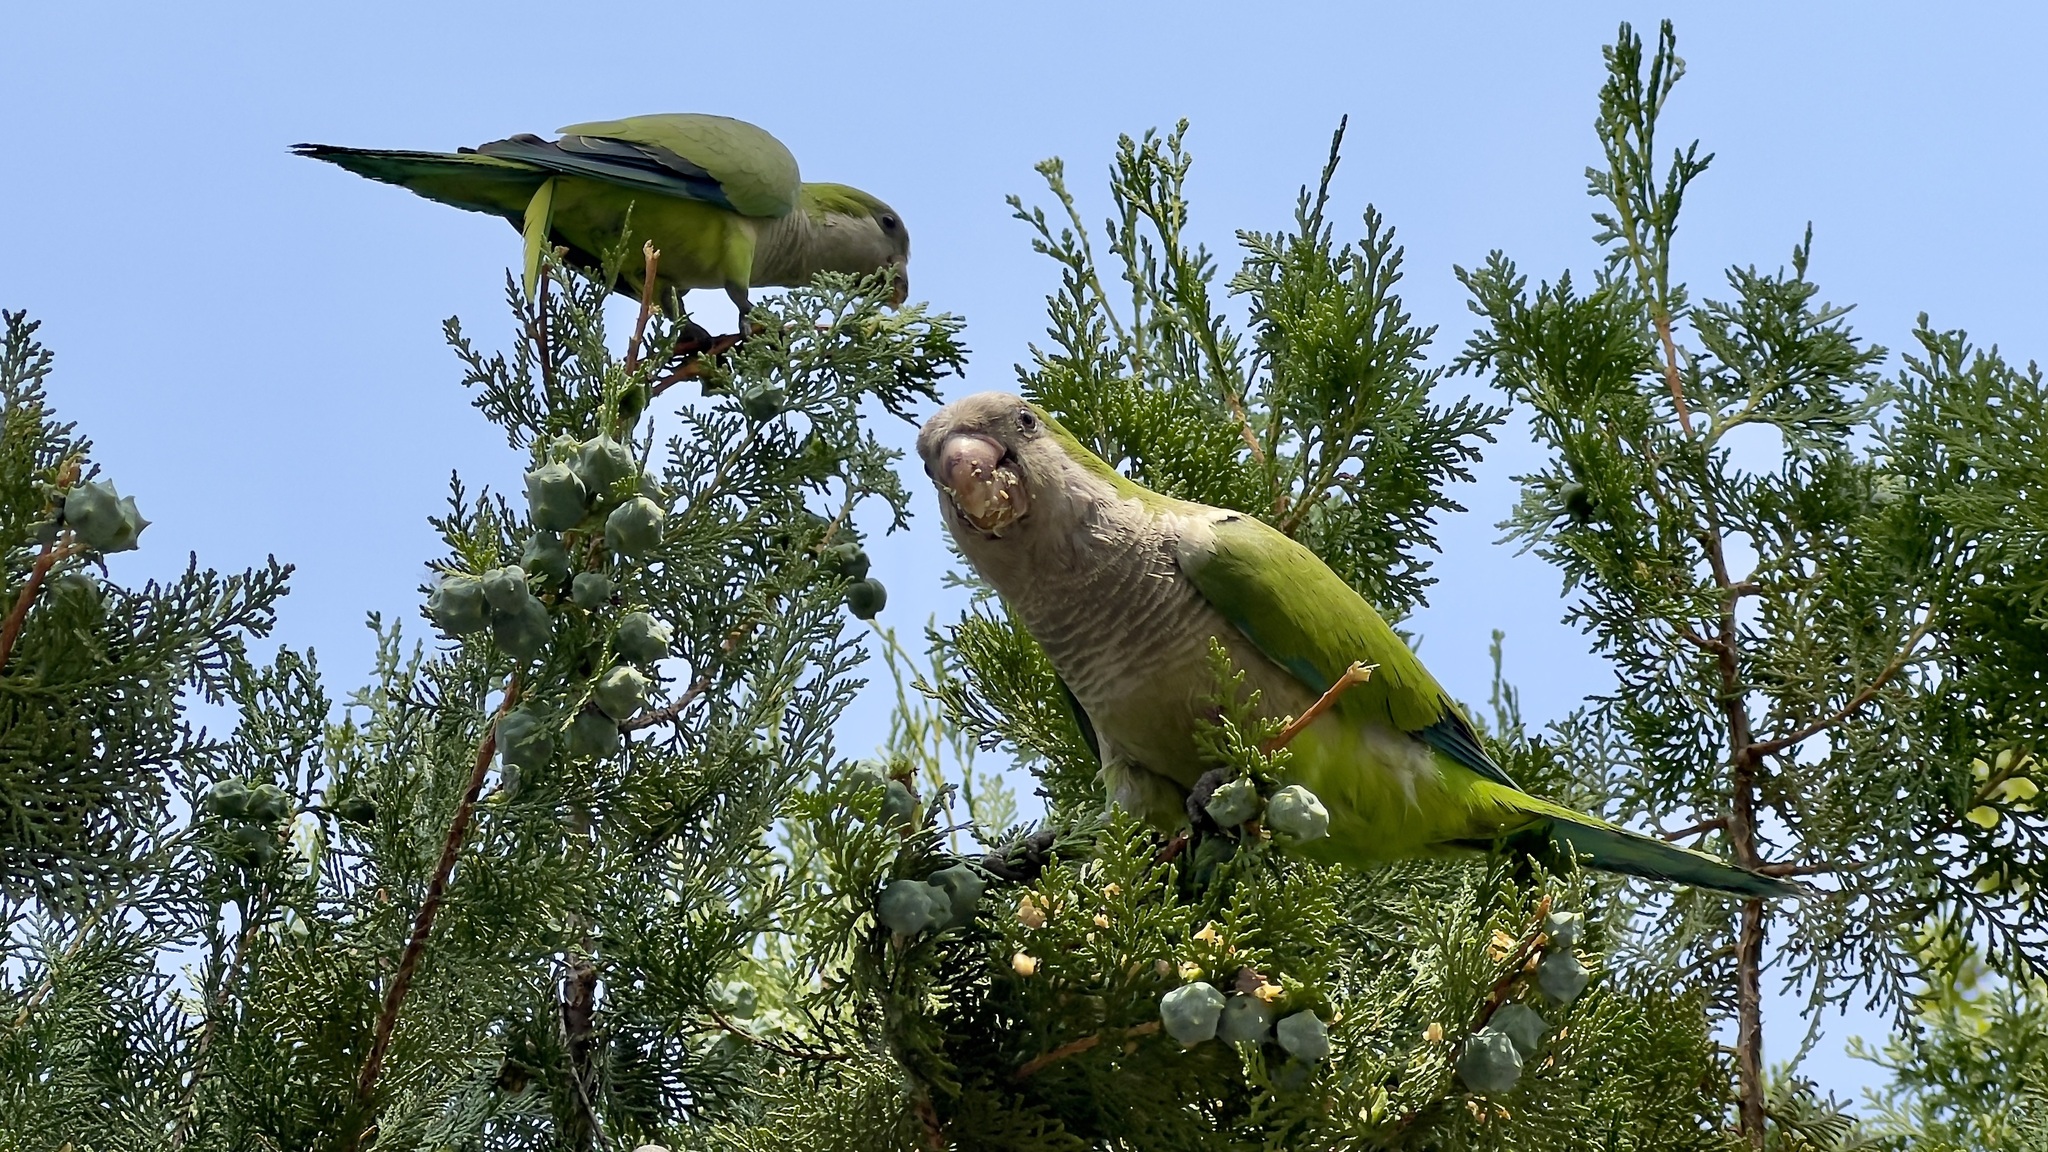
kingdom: Animalia
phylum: Chordata
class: Aves
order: Psittaciformes
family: Psittacidae
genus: Myiopsitta
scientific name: Myiopsitta monachus
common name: Monk parakeet
